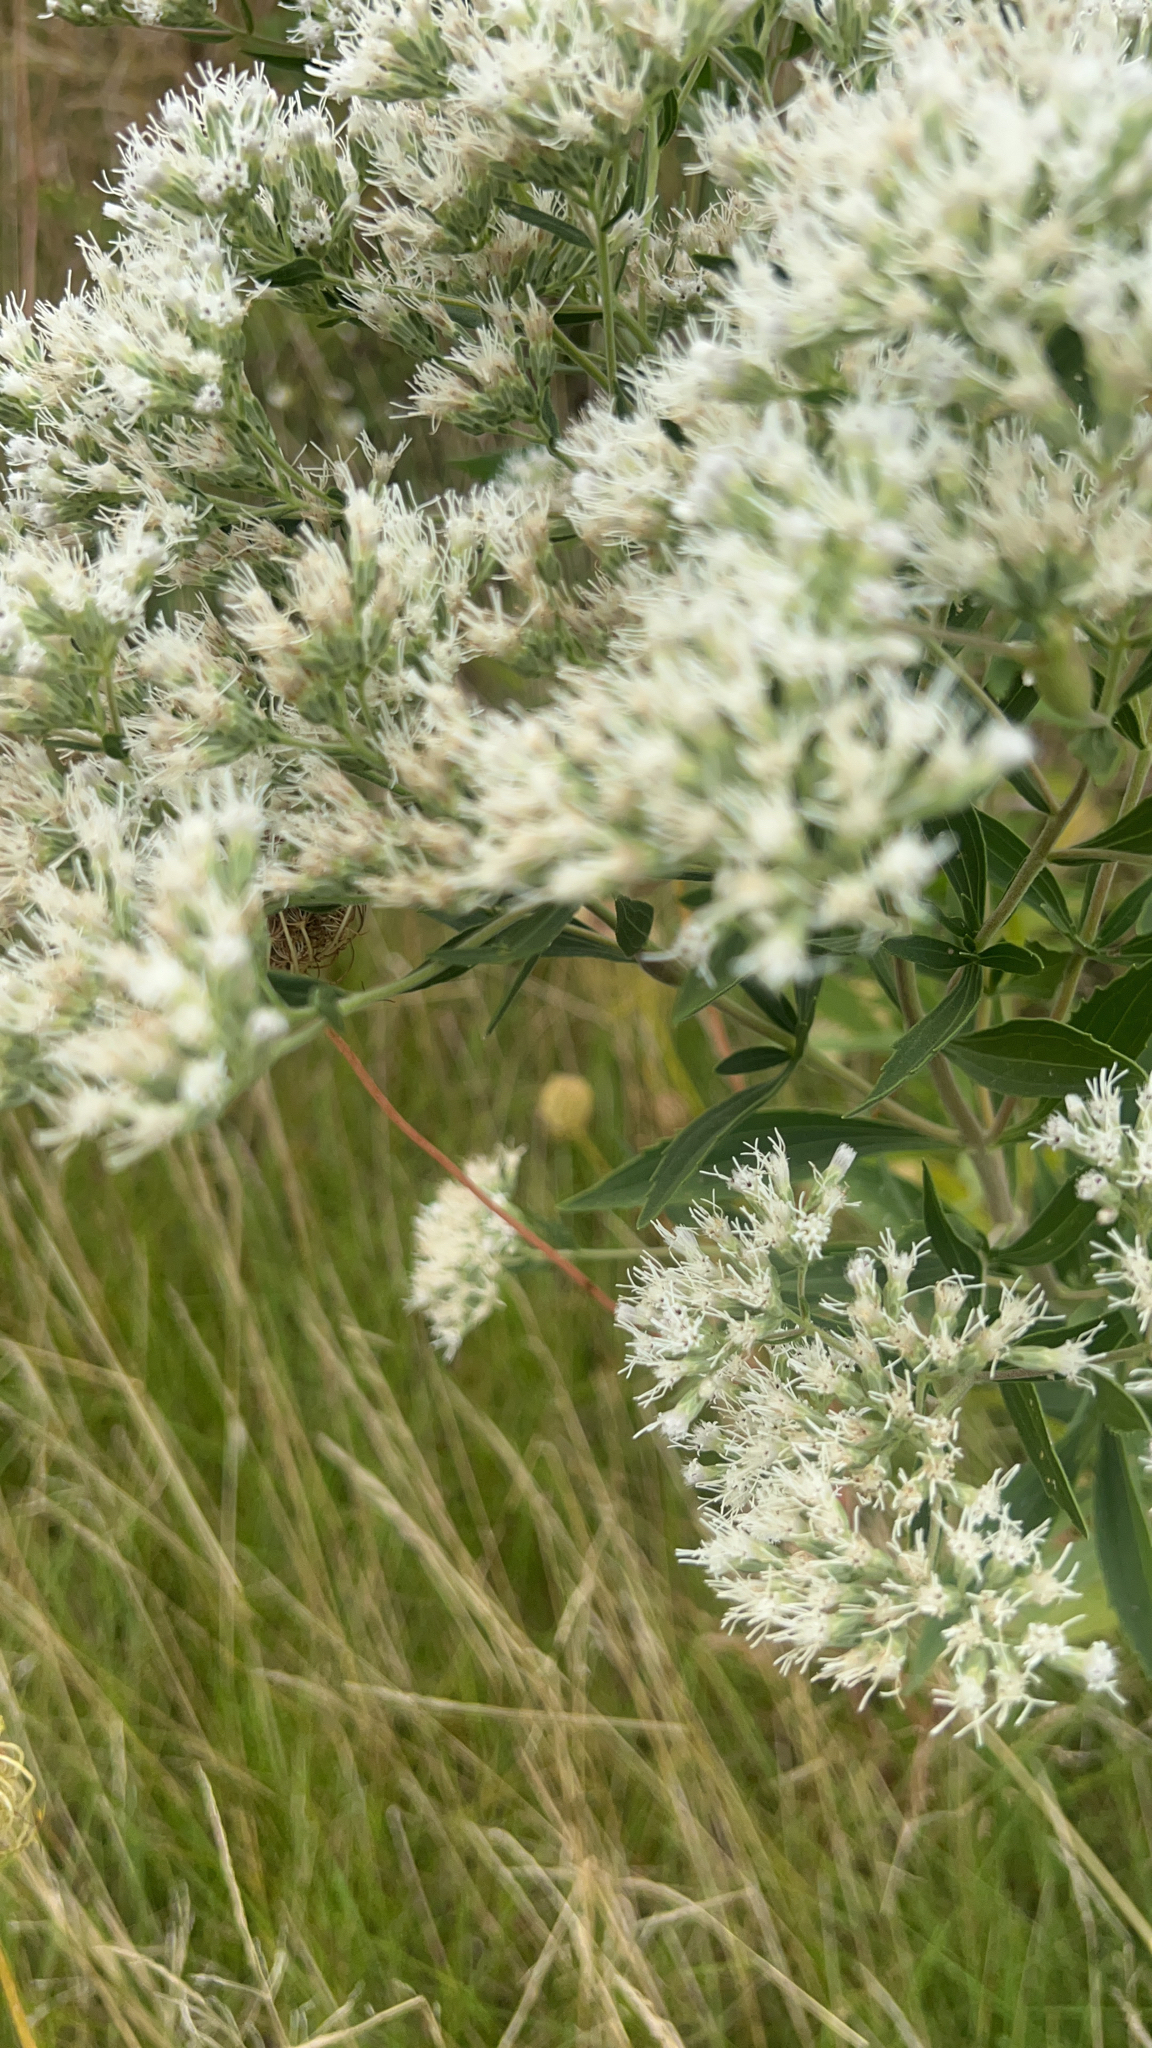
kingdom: Plantae
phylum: Tracheophyta
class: Magnoliopsida
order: Asterales
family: Asteraceae
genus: Eupatorium
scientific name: Eupatorium altissimum
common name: Tall thoroughwort
